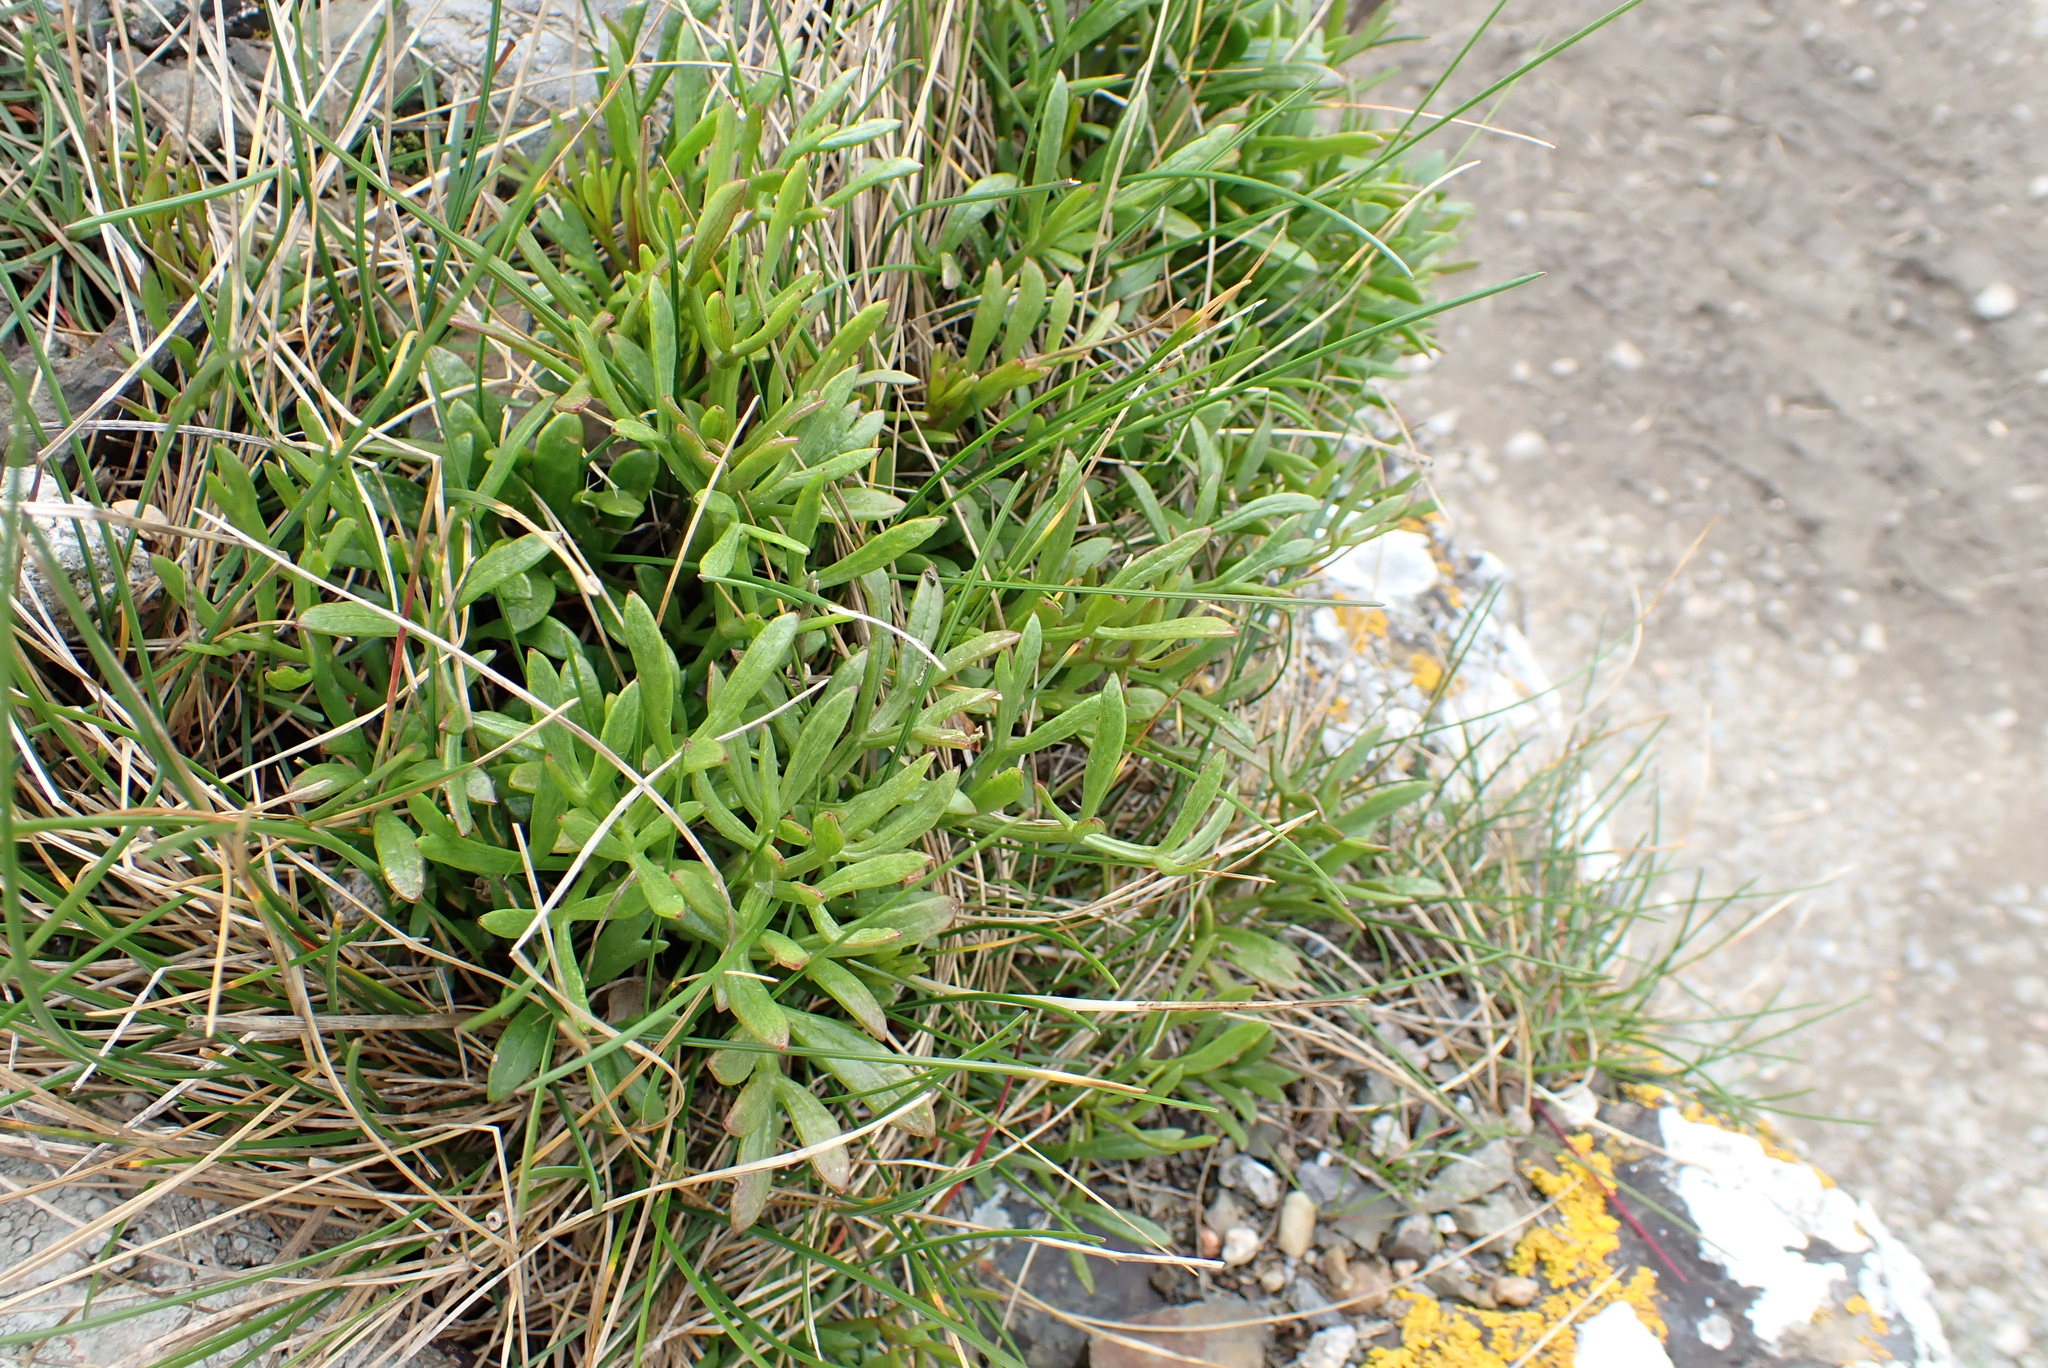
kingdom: Plantae
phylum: Tracheophyta
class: Magnoliopsida
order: Apiales
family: Apiaceae
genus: Crithmum
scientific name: Crithmum maritimum
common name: Rock samphire
